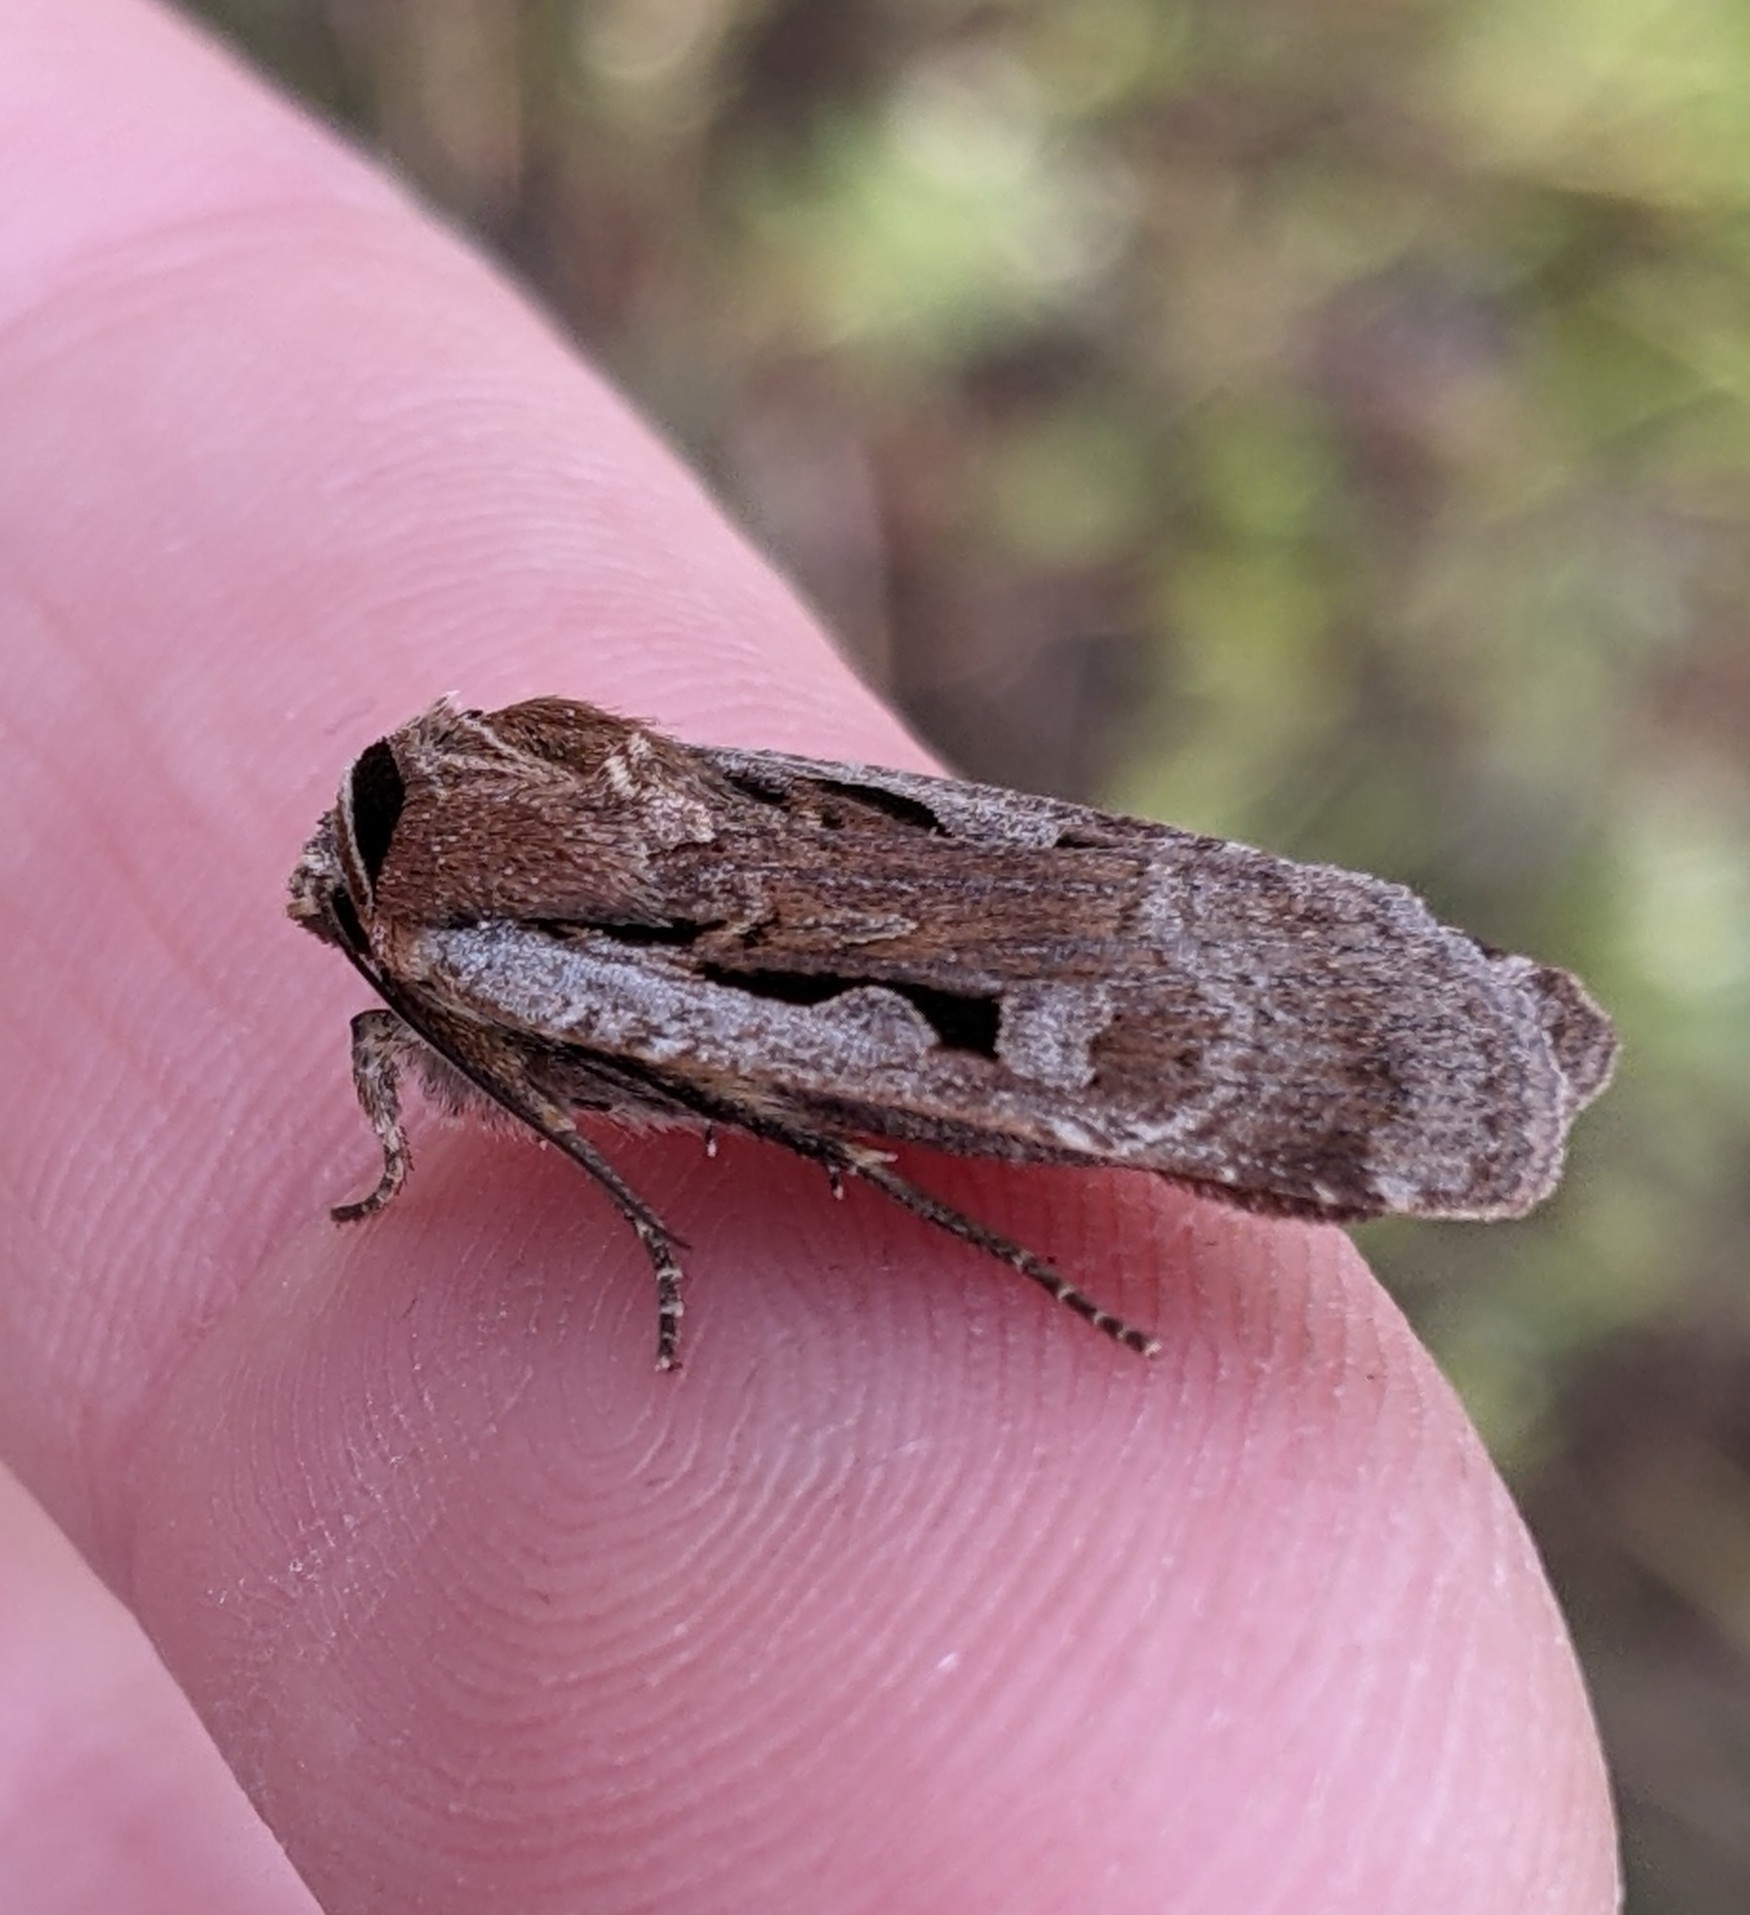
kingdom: Animalia
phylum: Arthropoda
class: Insecta
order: Lepidoptera
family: Noctuidae
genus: Parabagrotis
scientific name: Parabagrotis formalis
